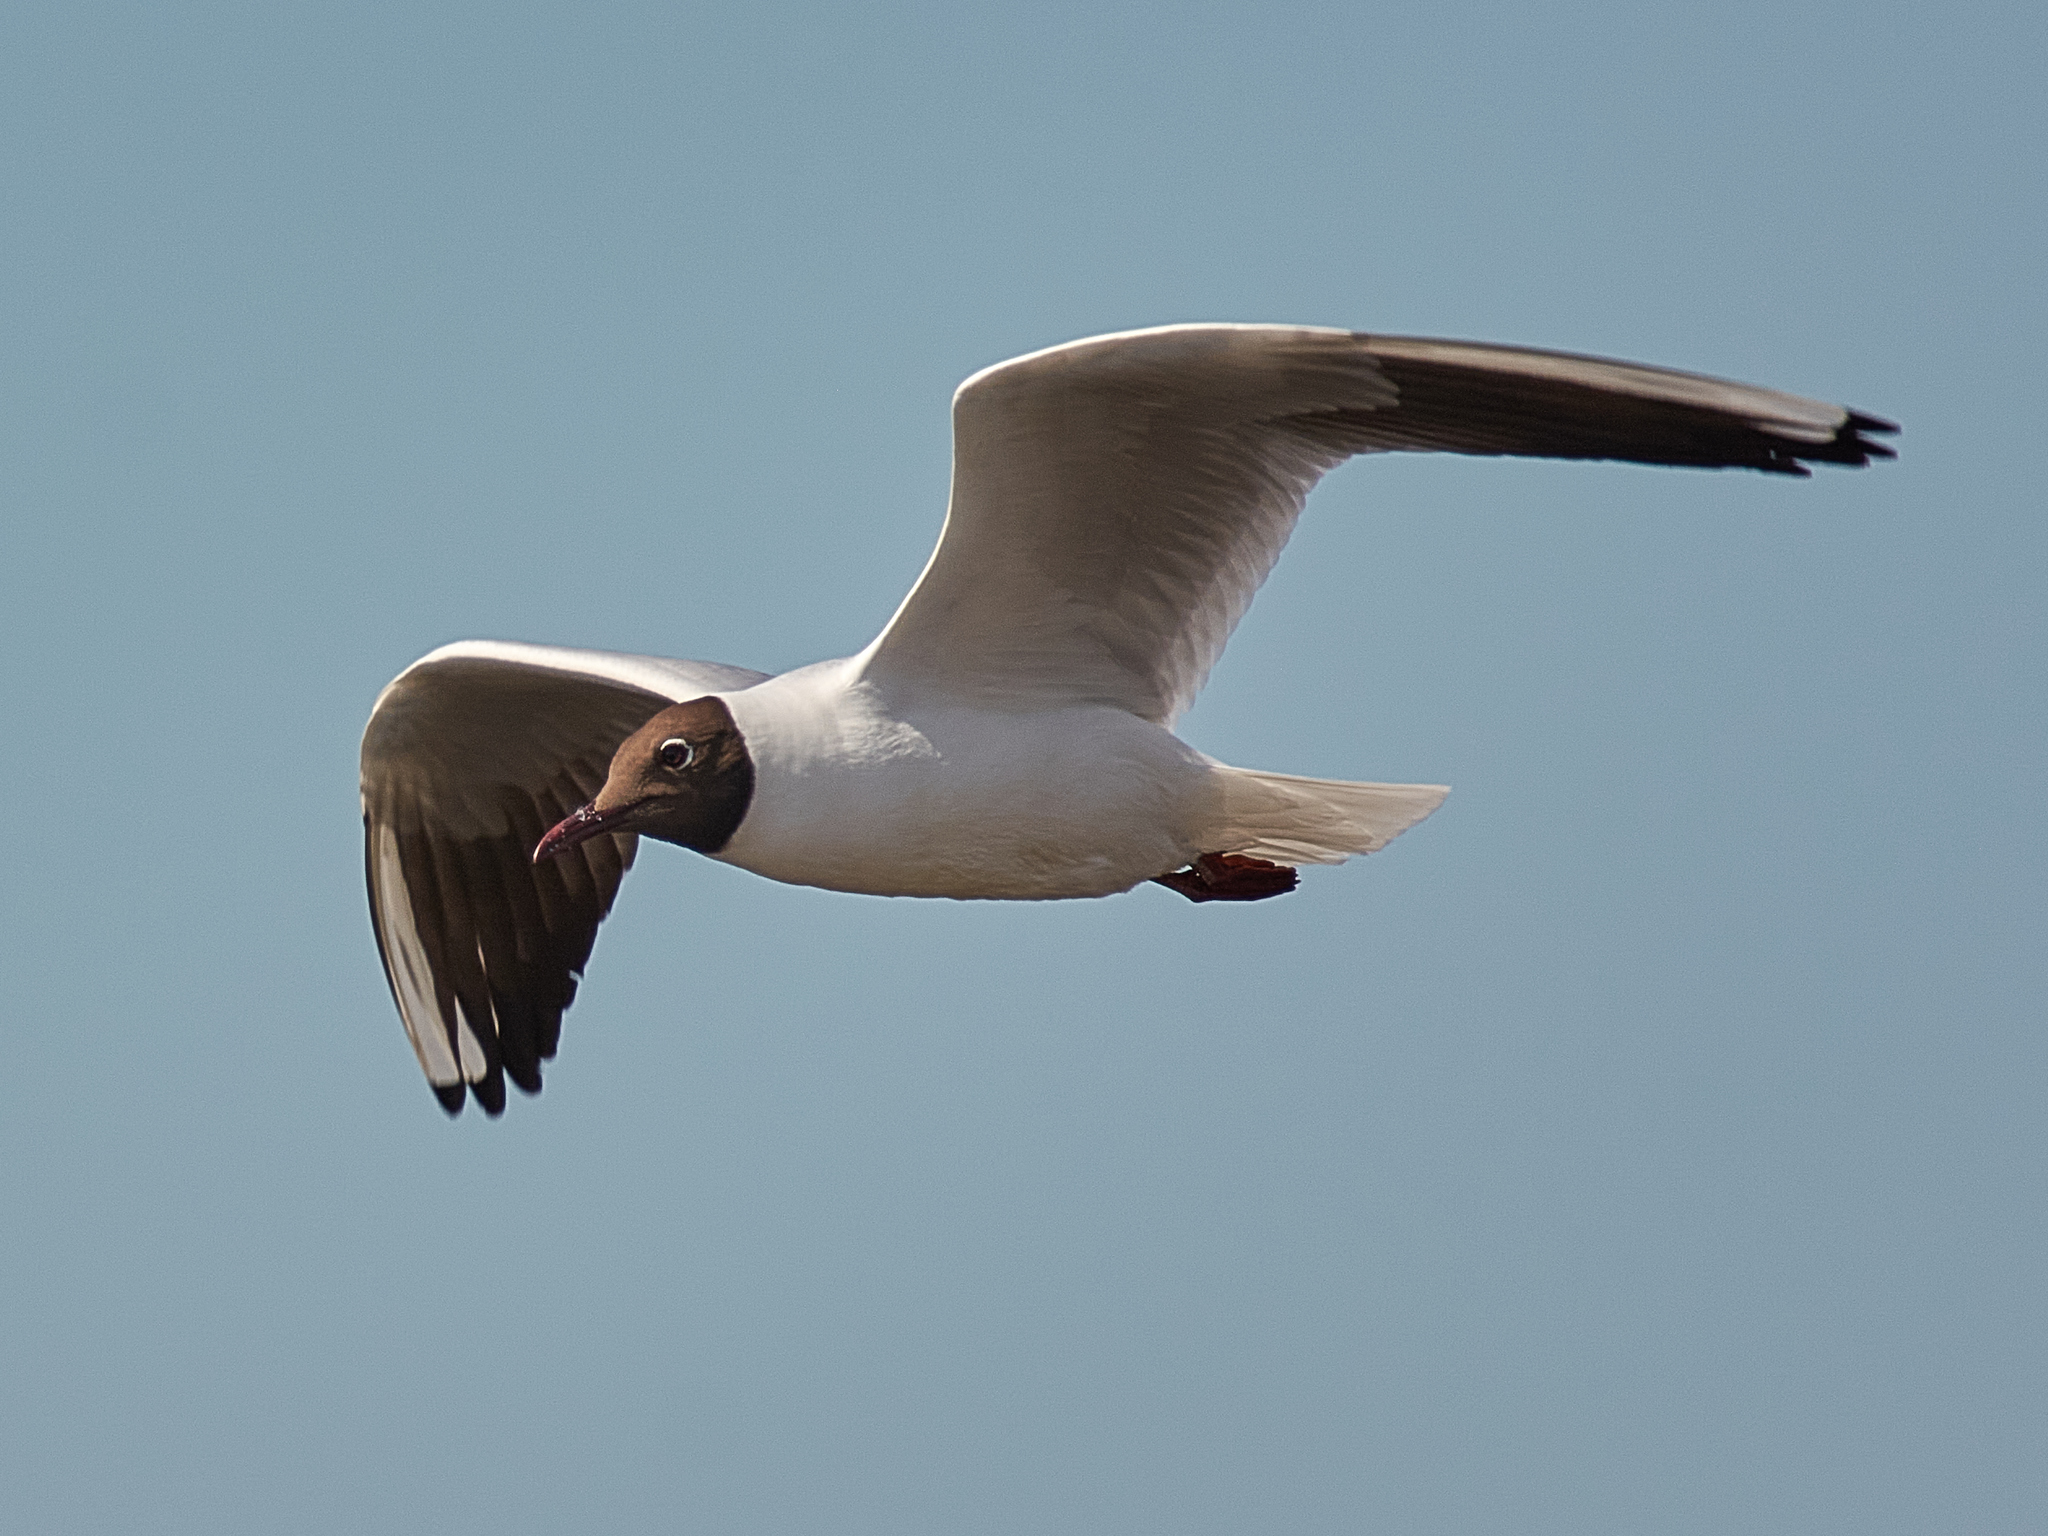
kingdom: Animalia
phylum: Chordata
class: Aves
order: Charadriiformes
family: Laridae
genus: Chroicocephalus
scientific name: Chroicocephalus ridibundus
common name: Black-headed gull
